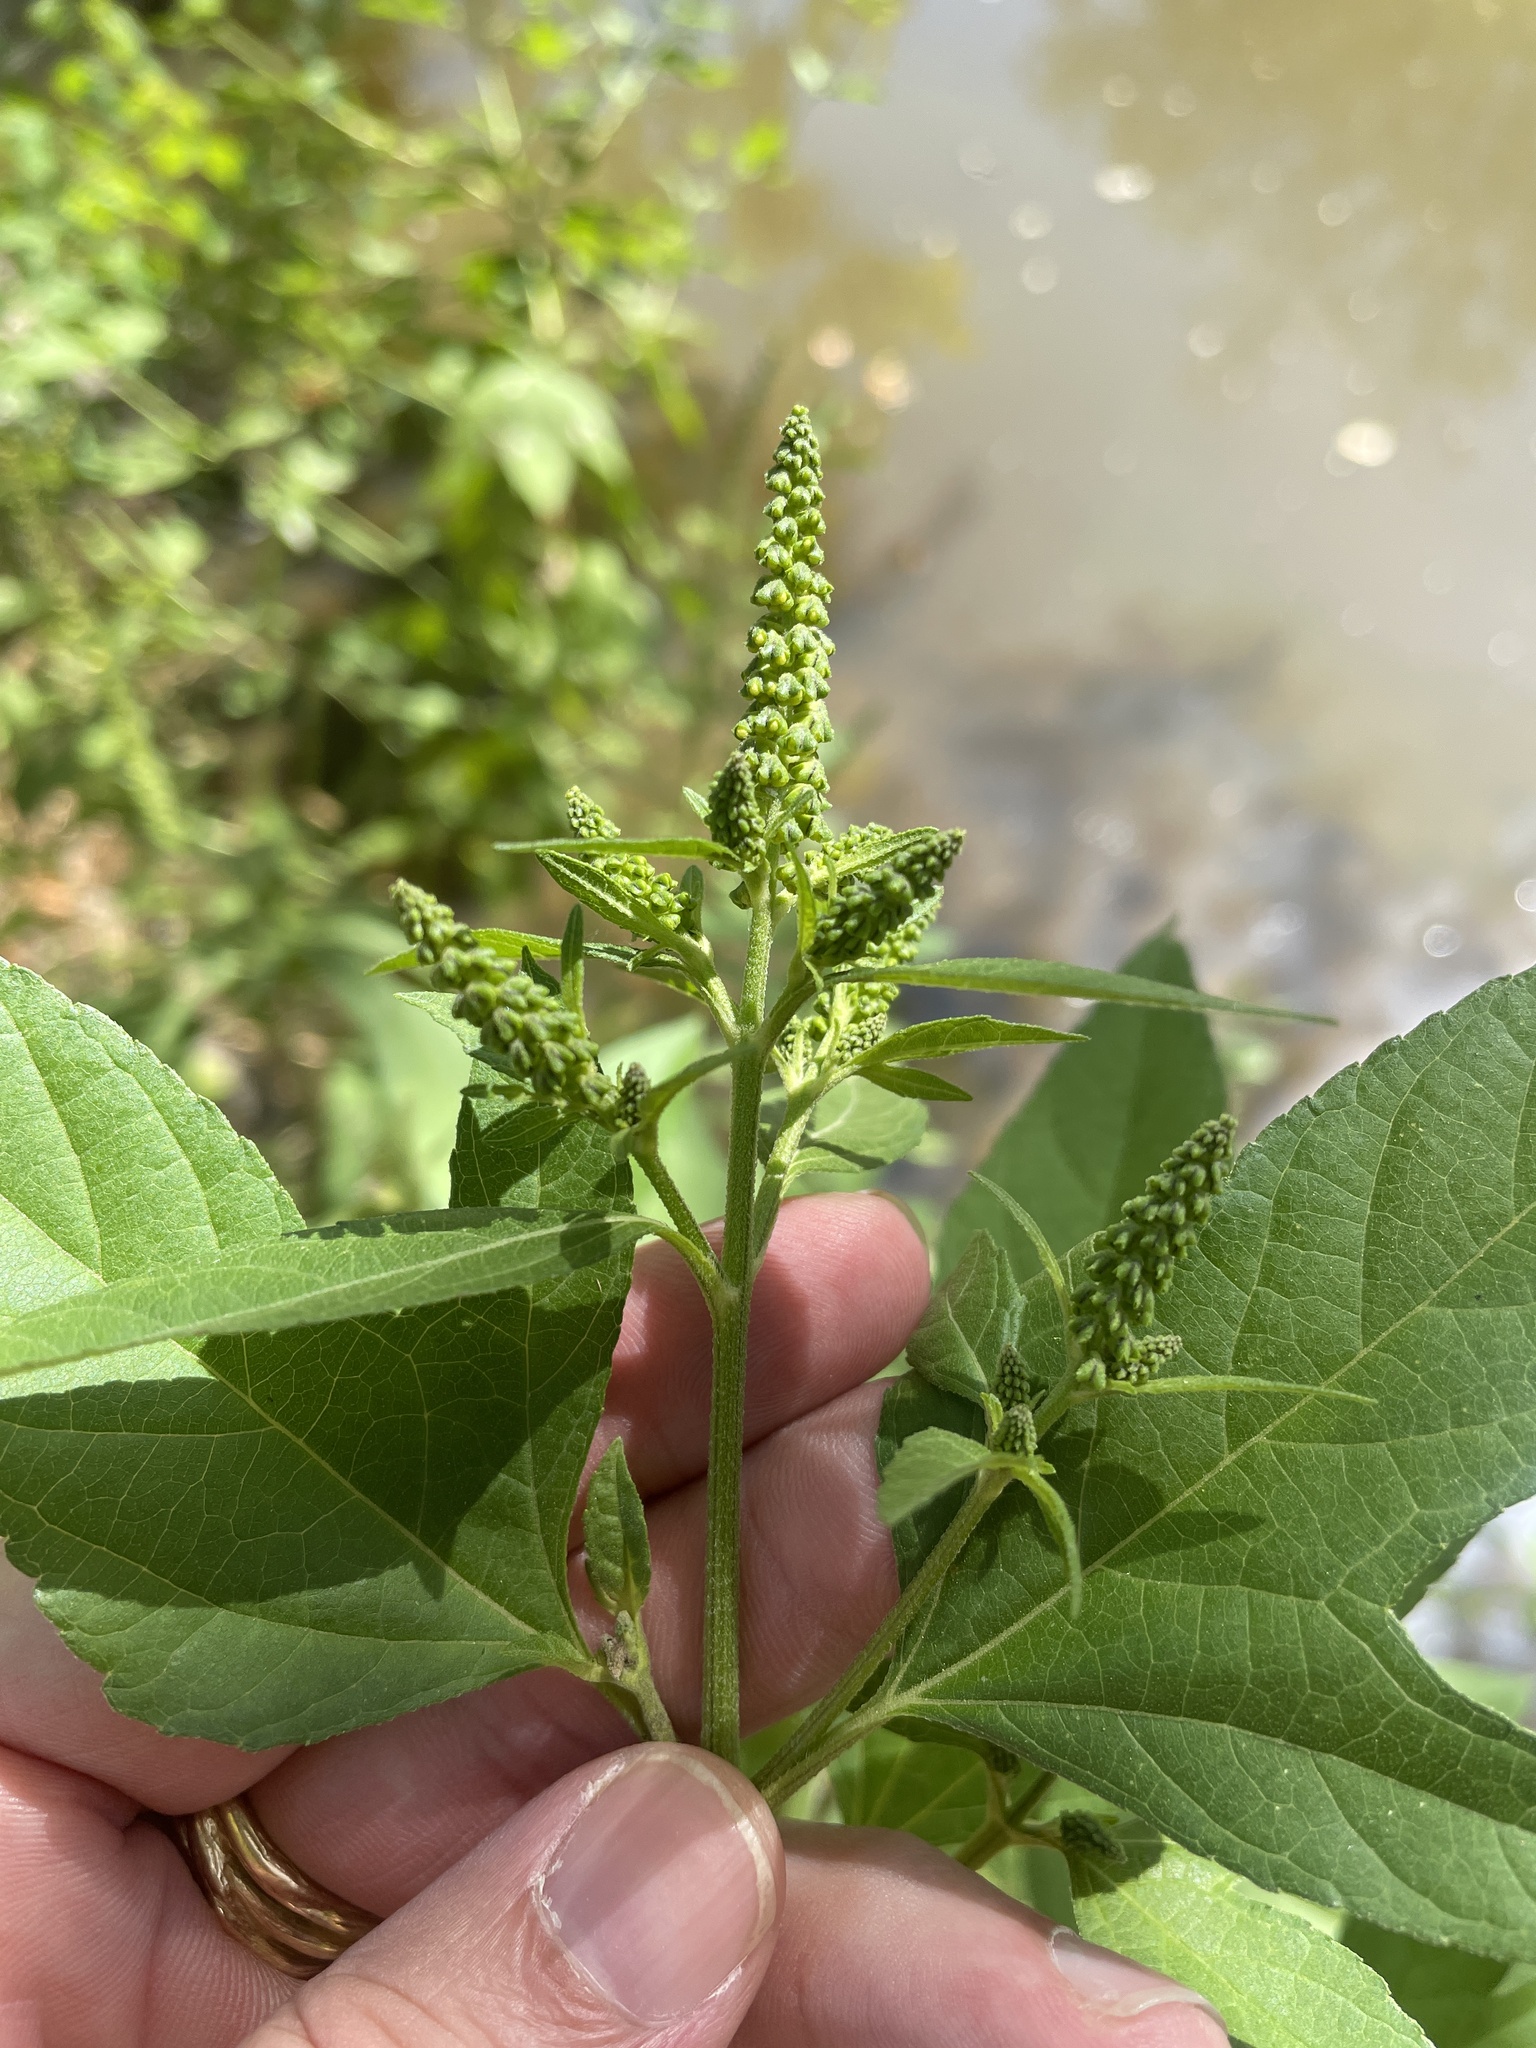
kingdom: Plantae
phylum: Tracheophyta
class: Magnoliopsida
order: Asterales
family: Asteraceae
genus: Ambrosia
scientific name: Ambrosia trifida
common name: Giant ragweed
